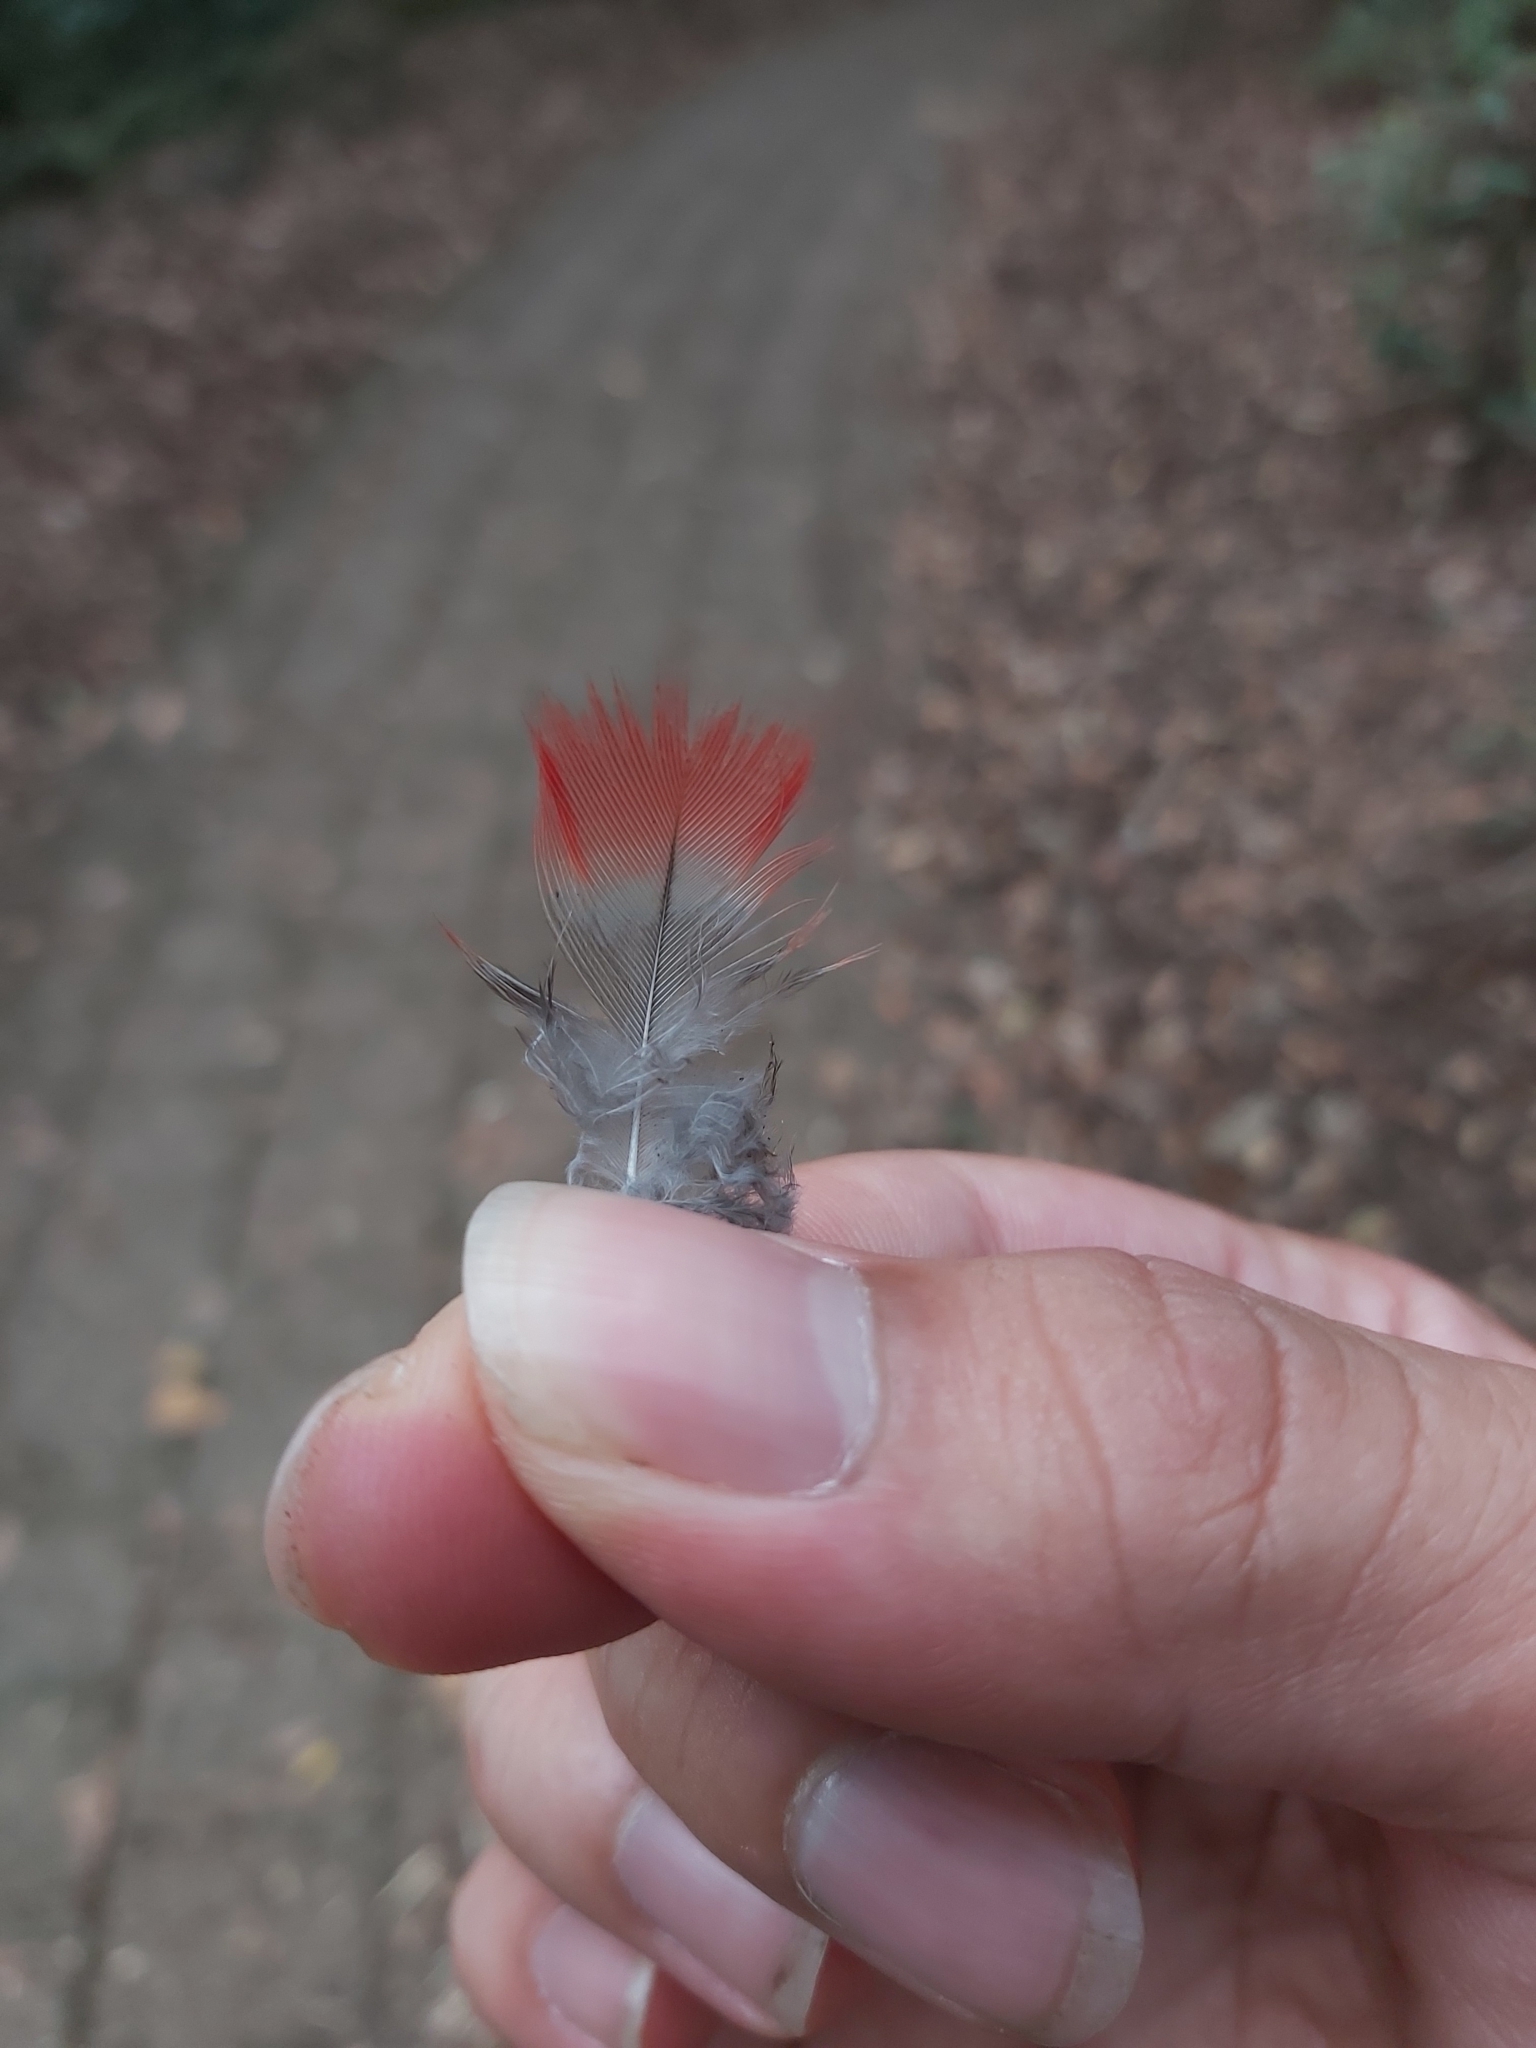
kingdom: Animalia
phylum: Chordata
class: Aves
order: Psittaciformes
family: Psittacidae
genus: Platycercus
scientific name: Platycercus elegans
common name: Crimson rosella
